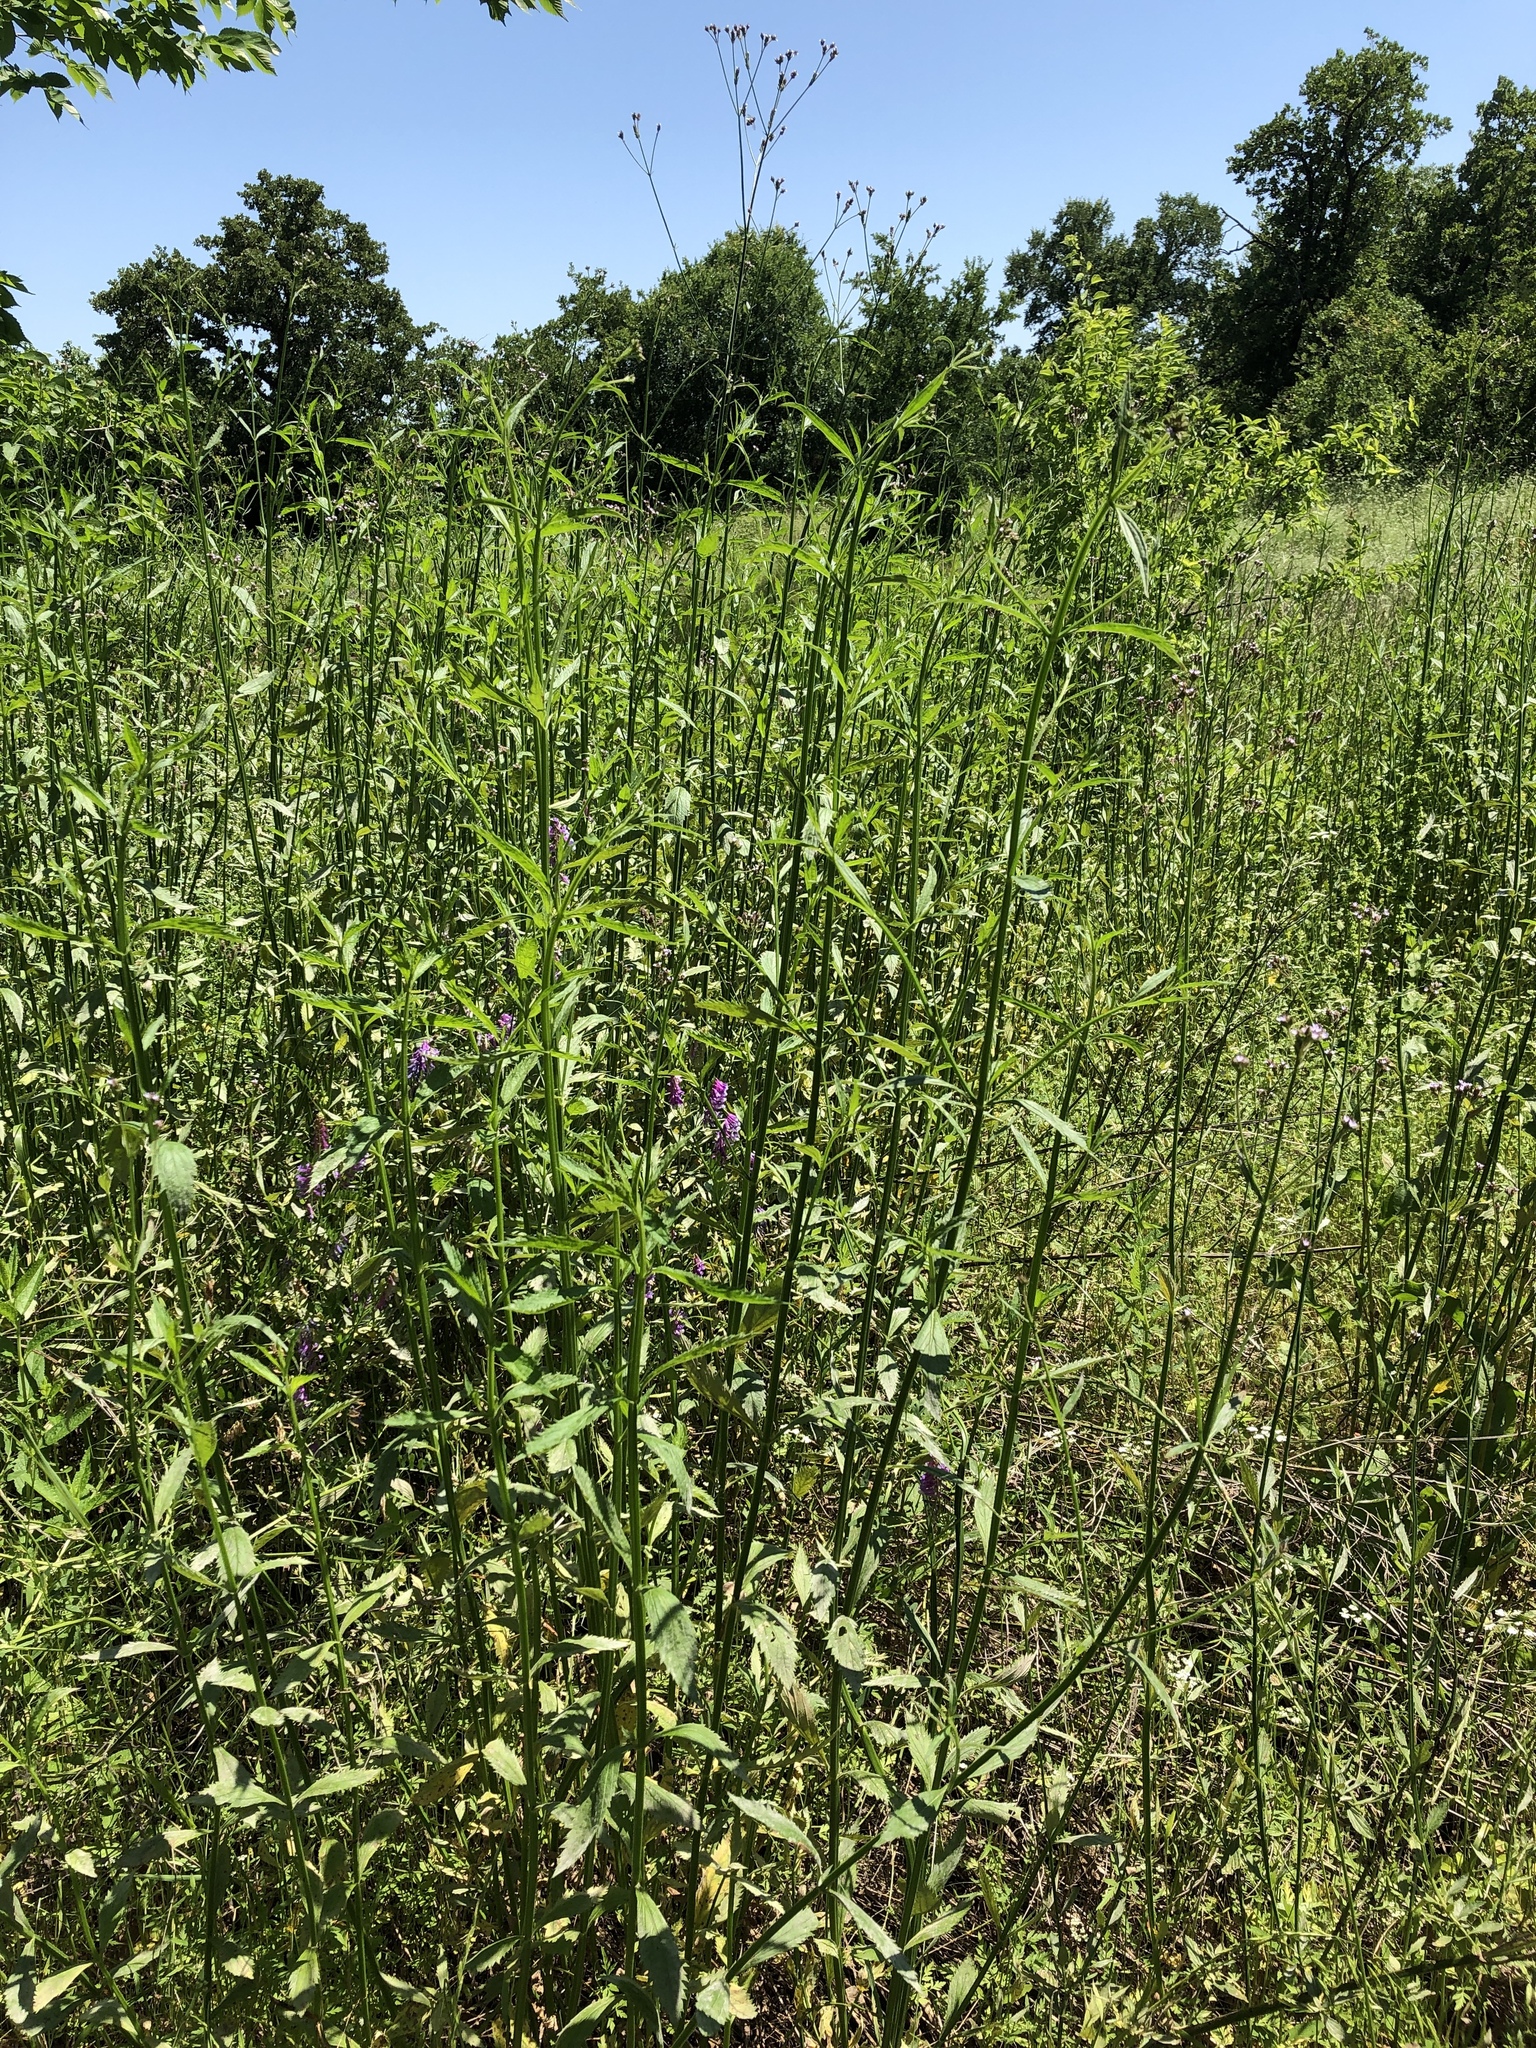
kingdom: Plantae
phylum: Tracheophyta
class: Magnoliopsida
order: Lamiales
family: Verbenaceae
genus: Verbena
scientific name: Verbena brasiliensis
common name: Brazilian vervain
